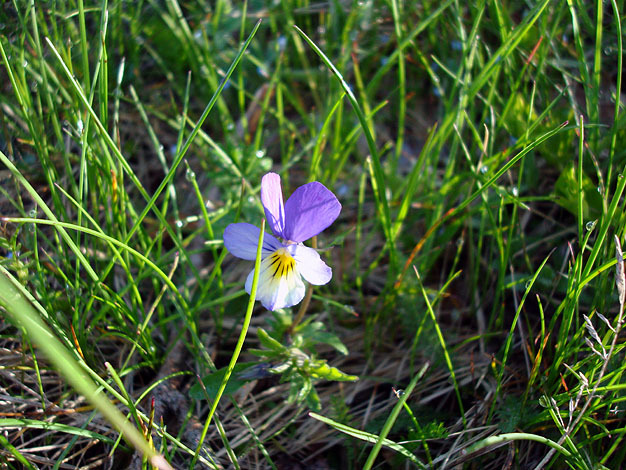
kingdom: Plantae
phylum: Tracheophyta
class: Magnoliopsida
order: Malpighiales
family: Violaceae
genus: Viola
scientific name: Viola tricolor
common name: Pansy
